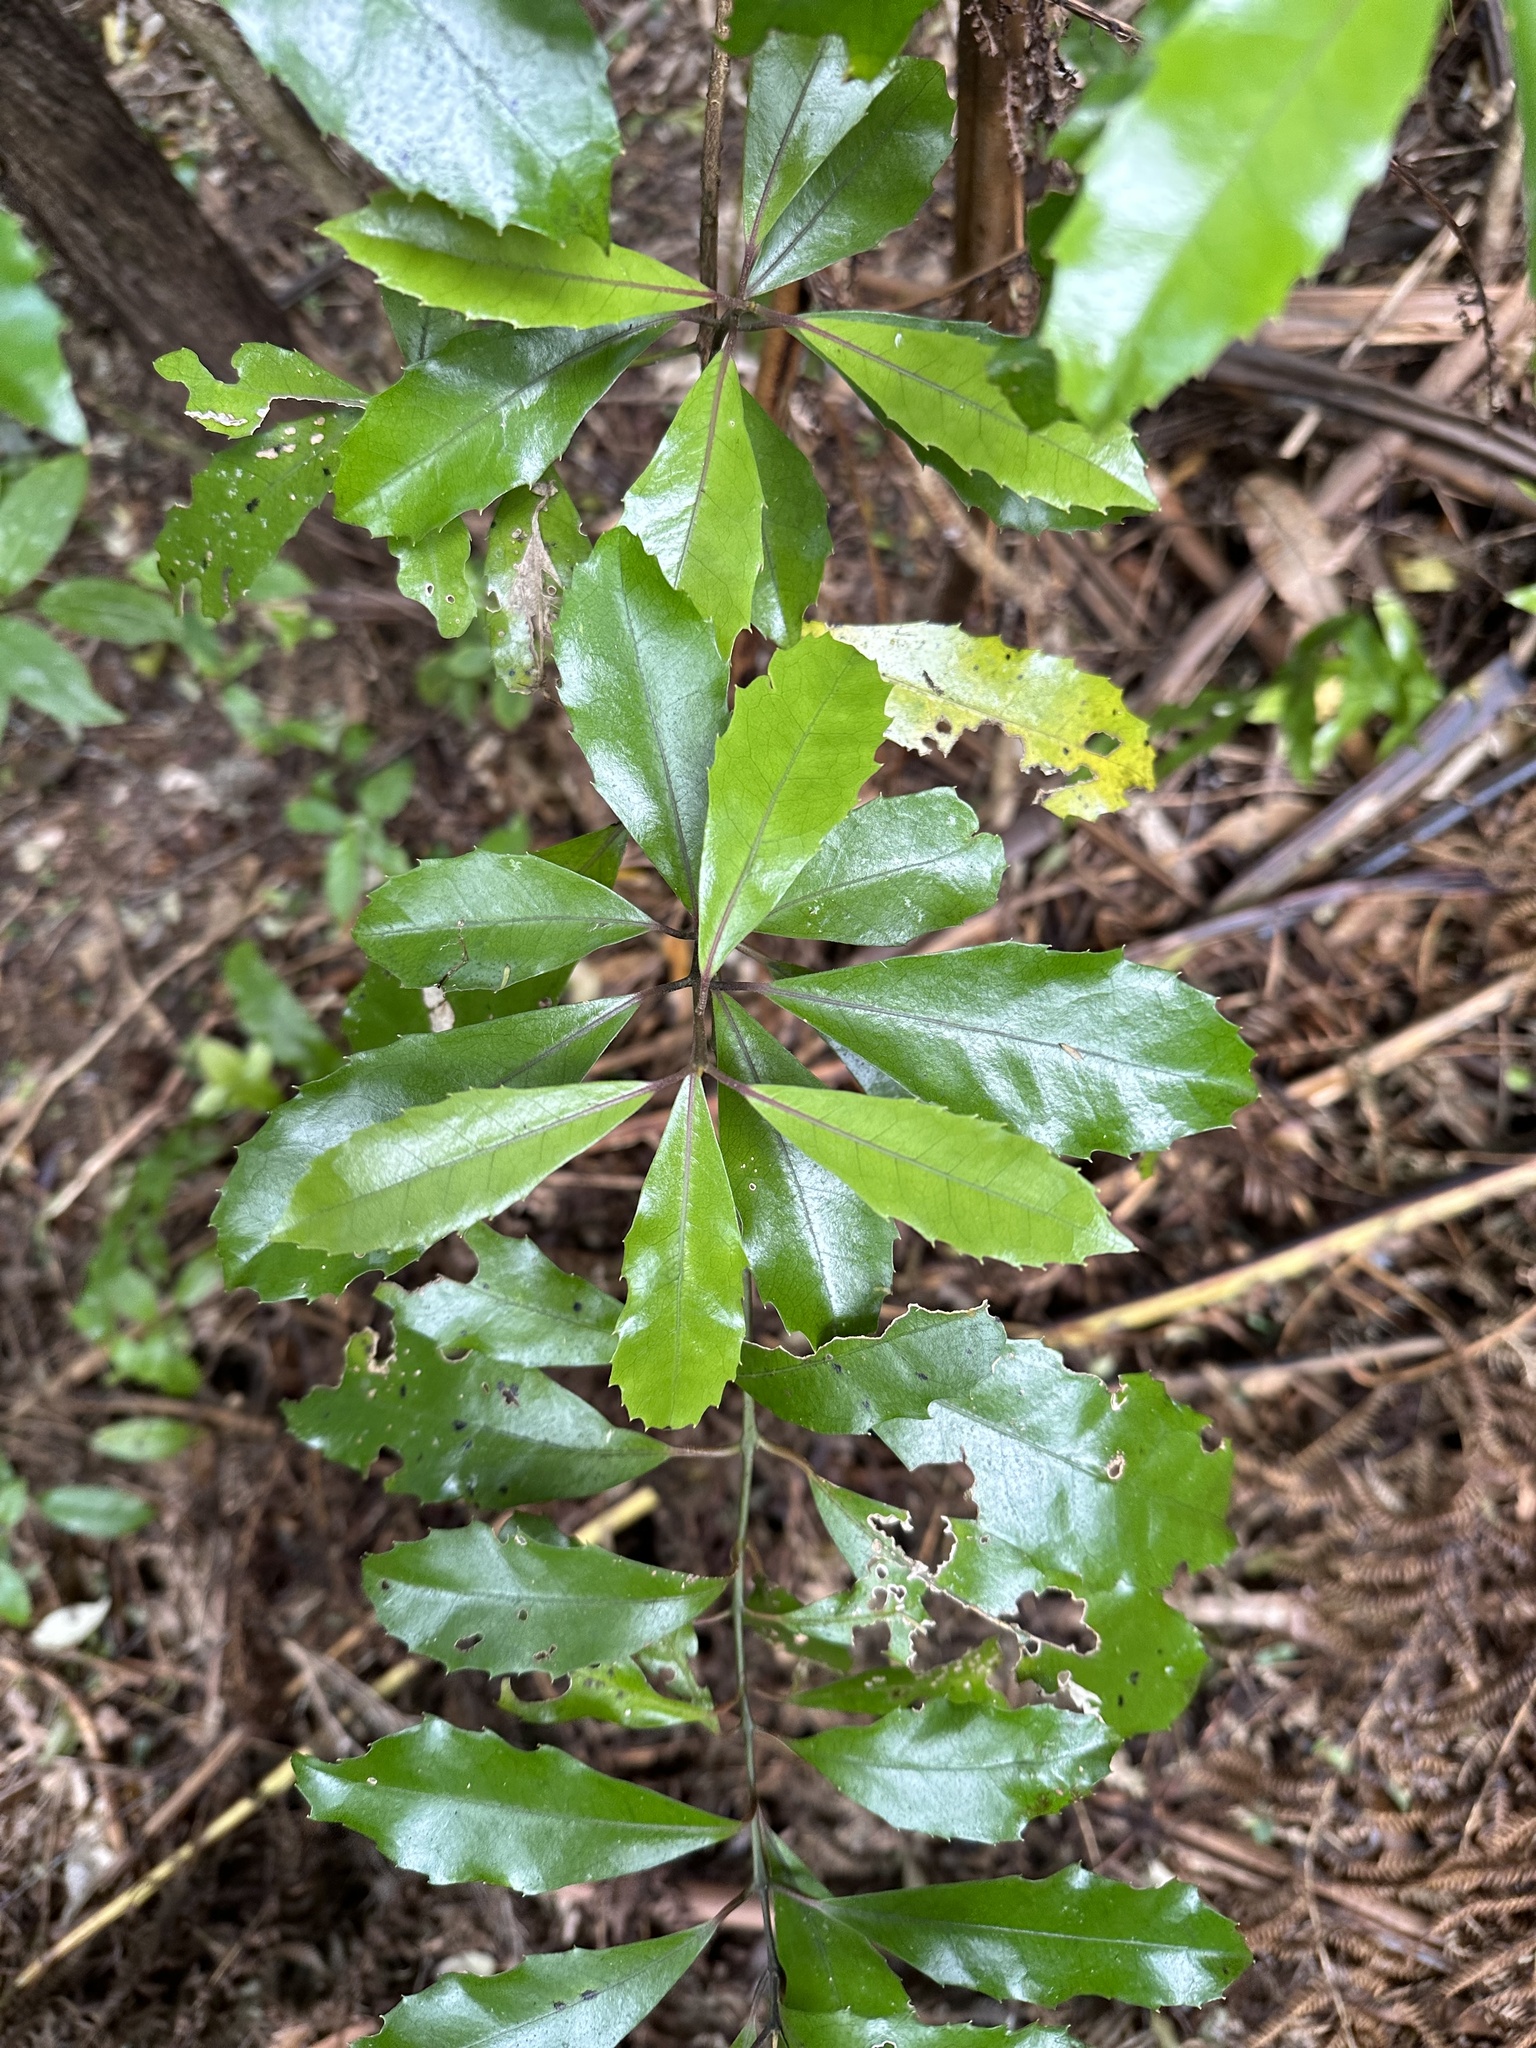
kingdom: Plantae
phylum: Tracheophyta
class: Magnoliopsida
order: Laurales
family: Monimiaceae
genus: Hedycarya
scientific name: Hedycarya arborea
